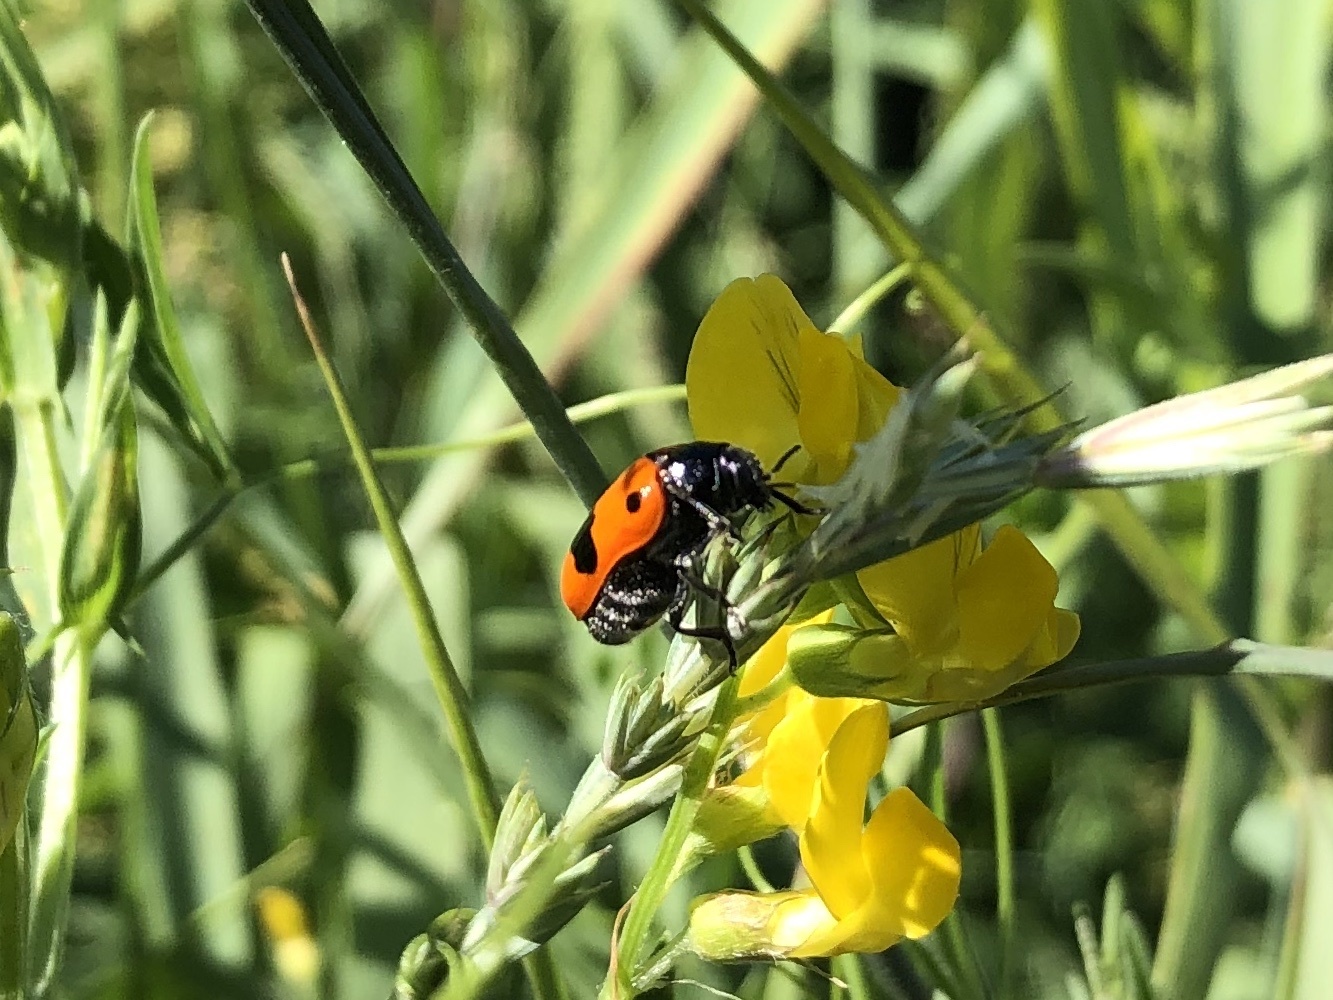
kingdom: Animalia
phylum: Arthropoda
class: Insecta
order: Coleoptera
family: Chrysomelidae
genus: Clytra
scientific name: Clytra laeviuscula
